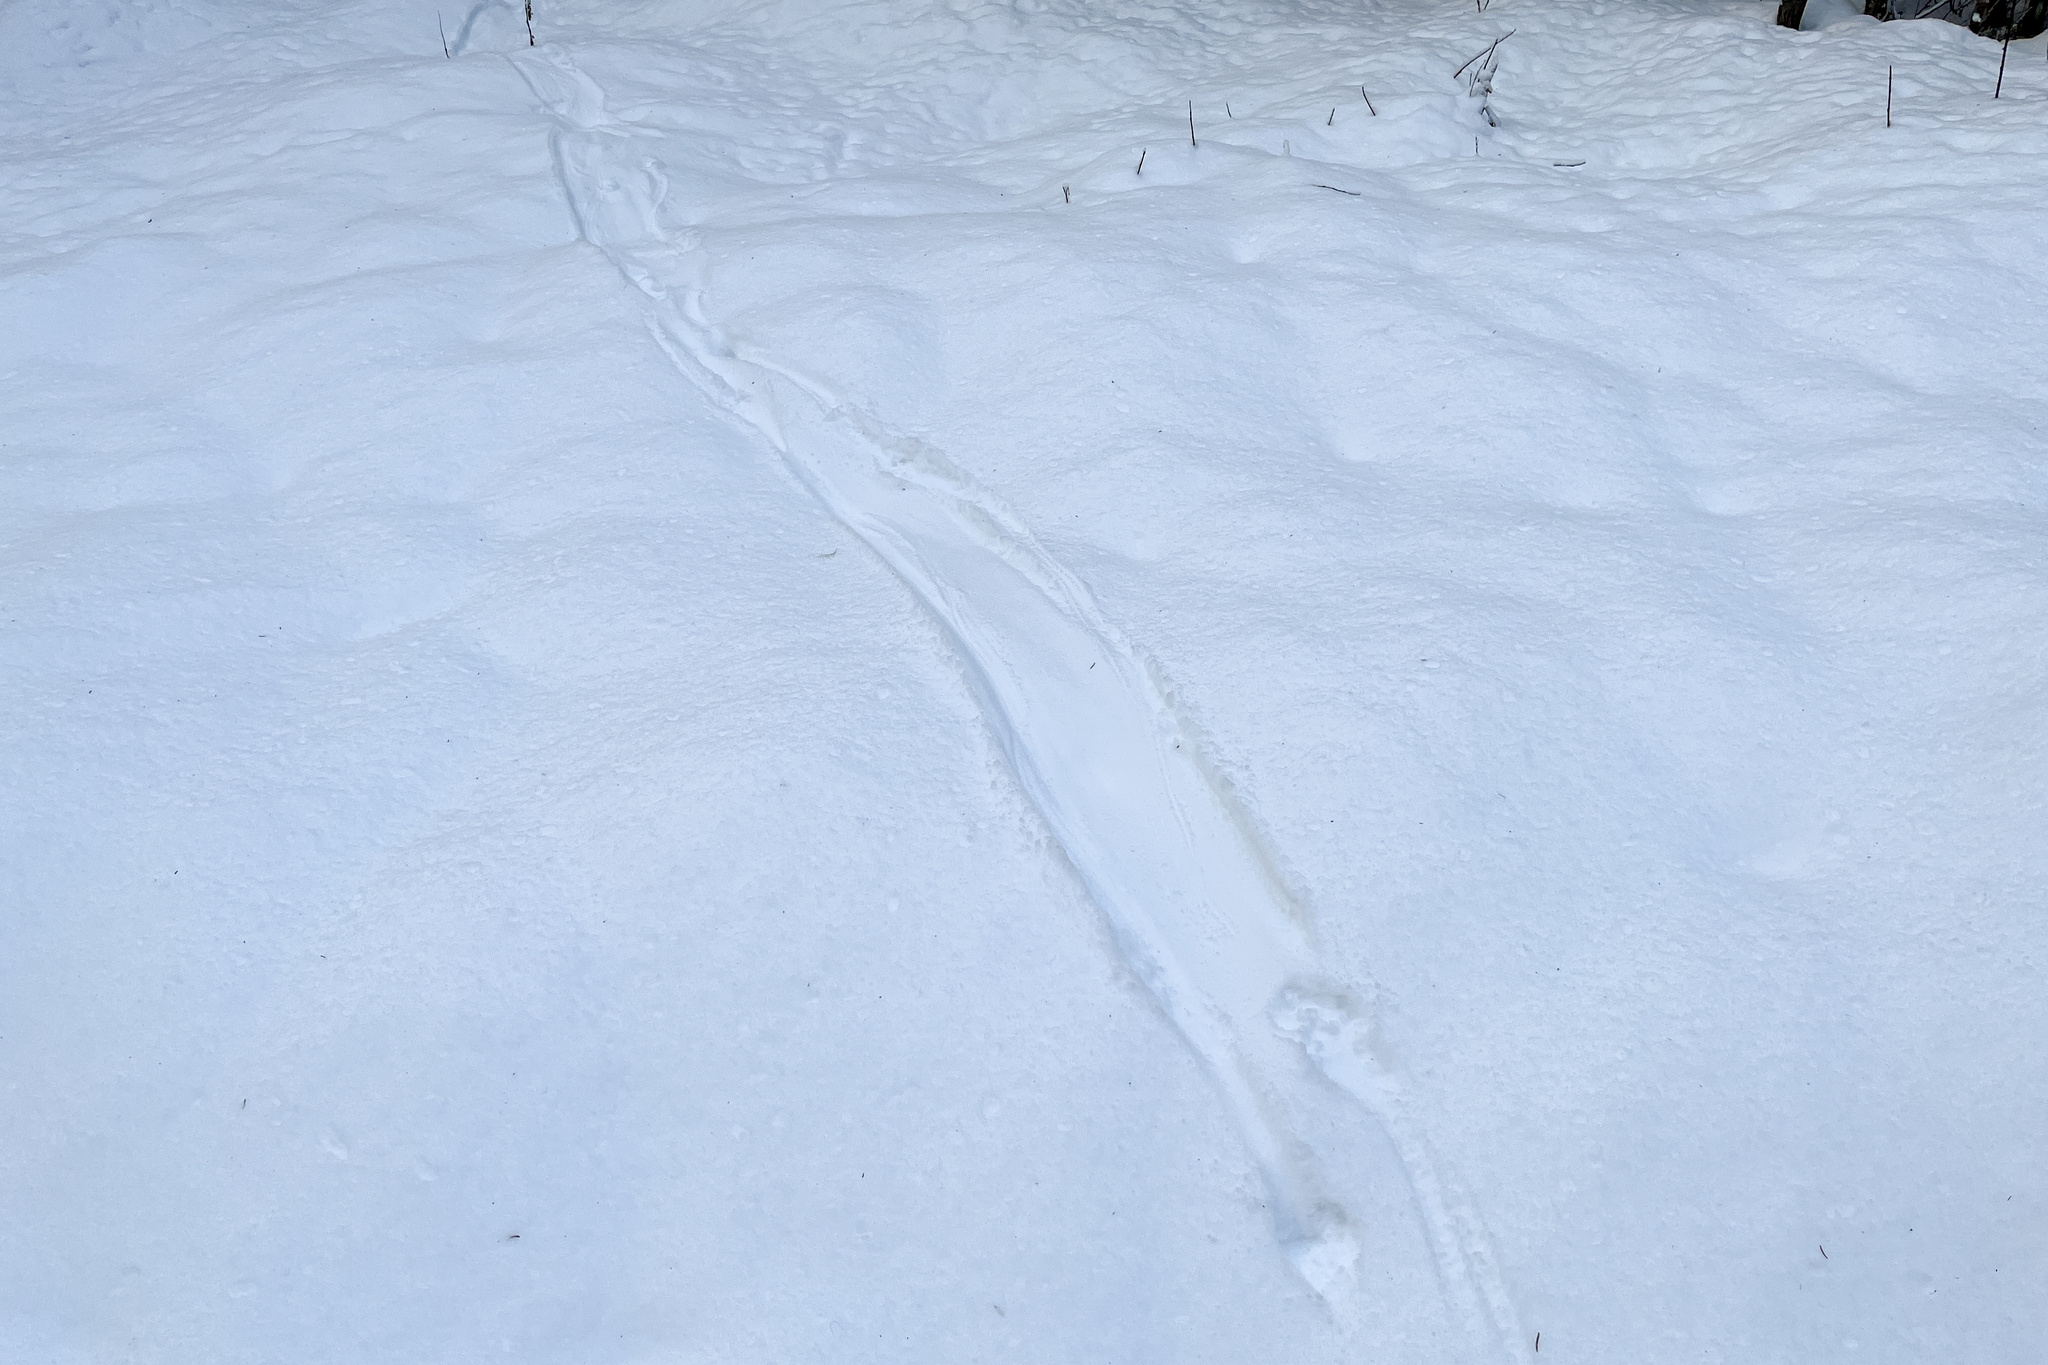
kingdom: Animalia
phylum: Chordata
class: Mammalia
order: Carnivora
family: Mustelidae
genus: Lutra
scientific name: Lutra lutra
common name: European otter
